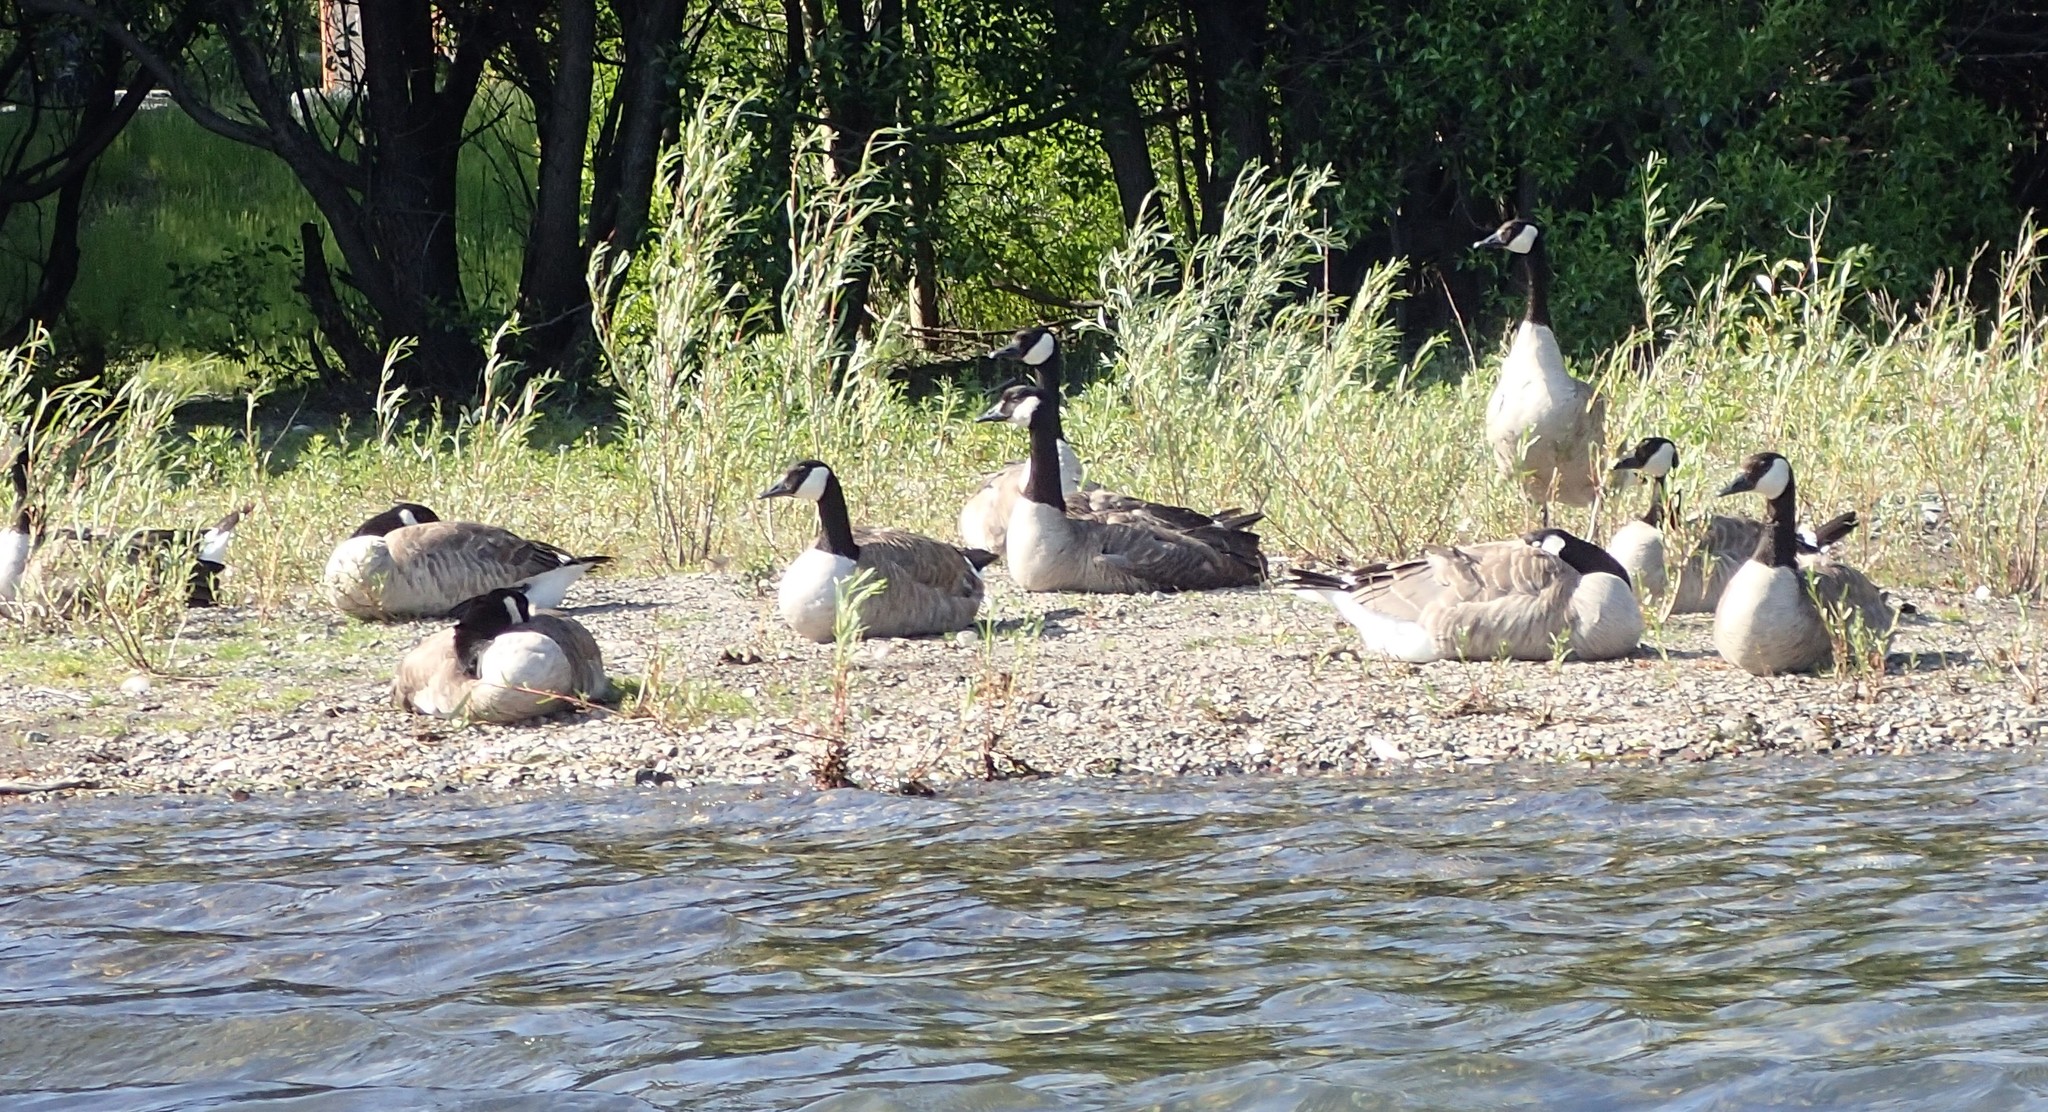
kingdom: Animalia
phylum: Chordata
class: Aves
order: Anseriformes
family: Anatidae
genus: Branta
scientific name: Branta canadensis
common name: Canada goose
